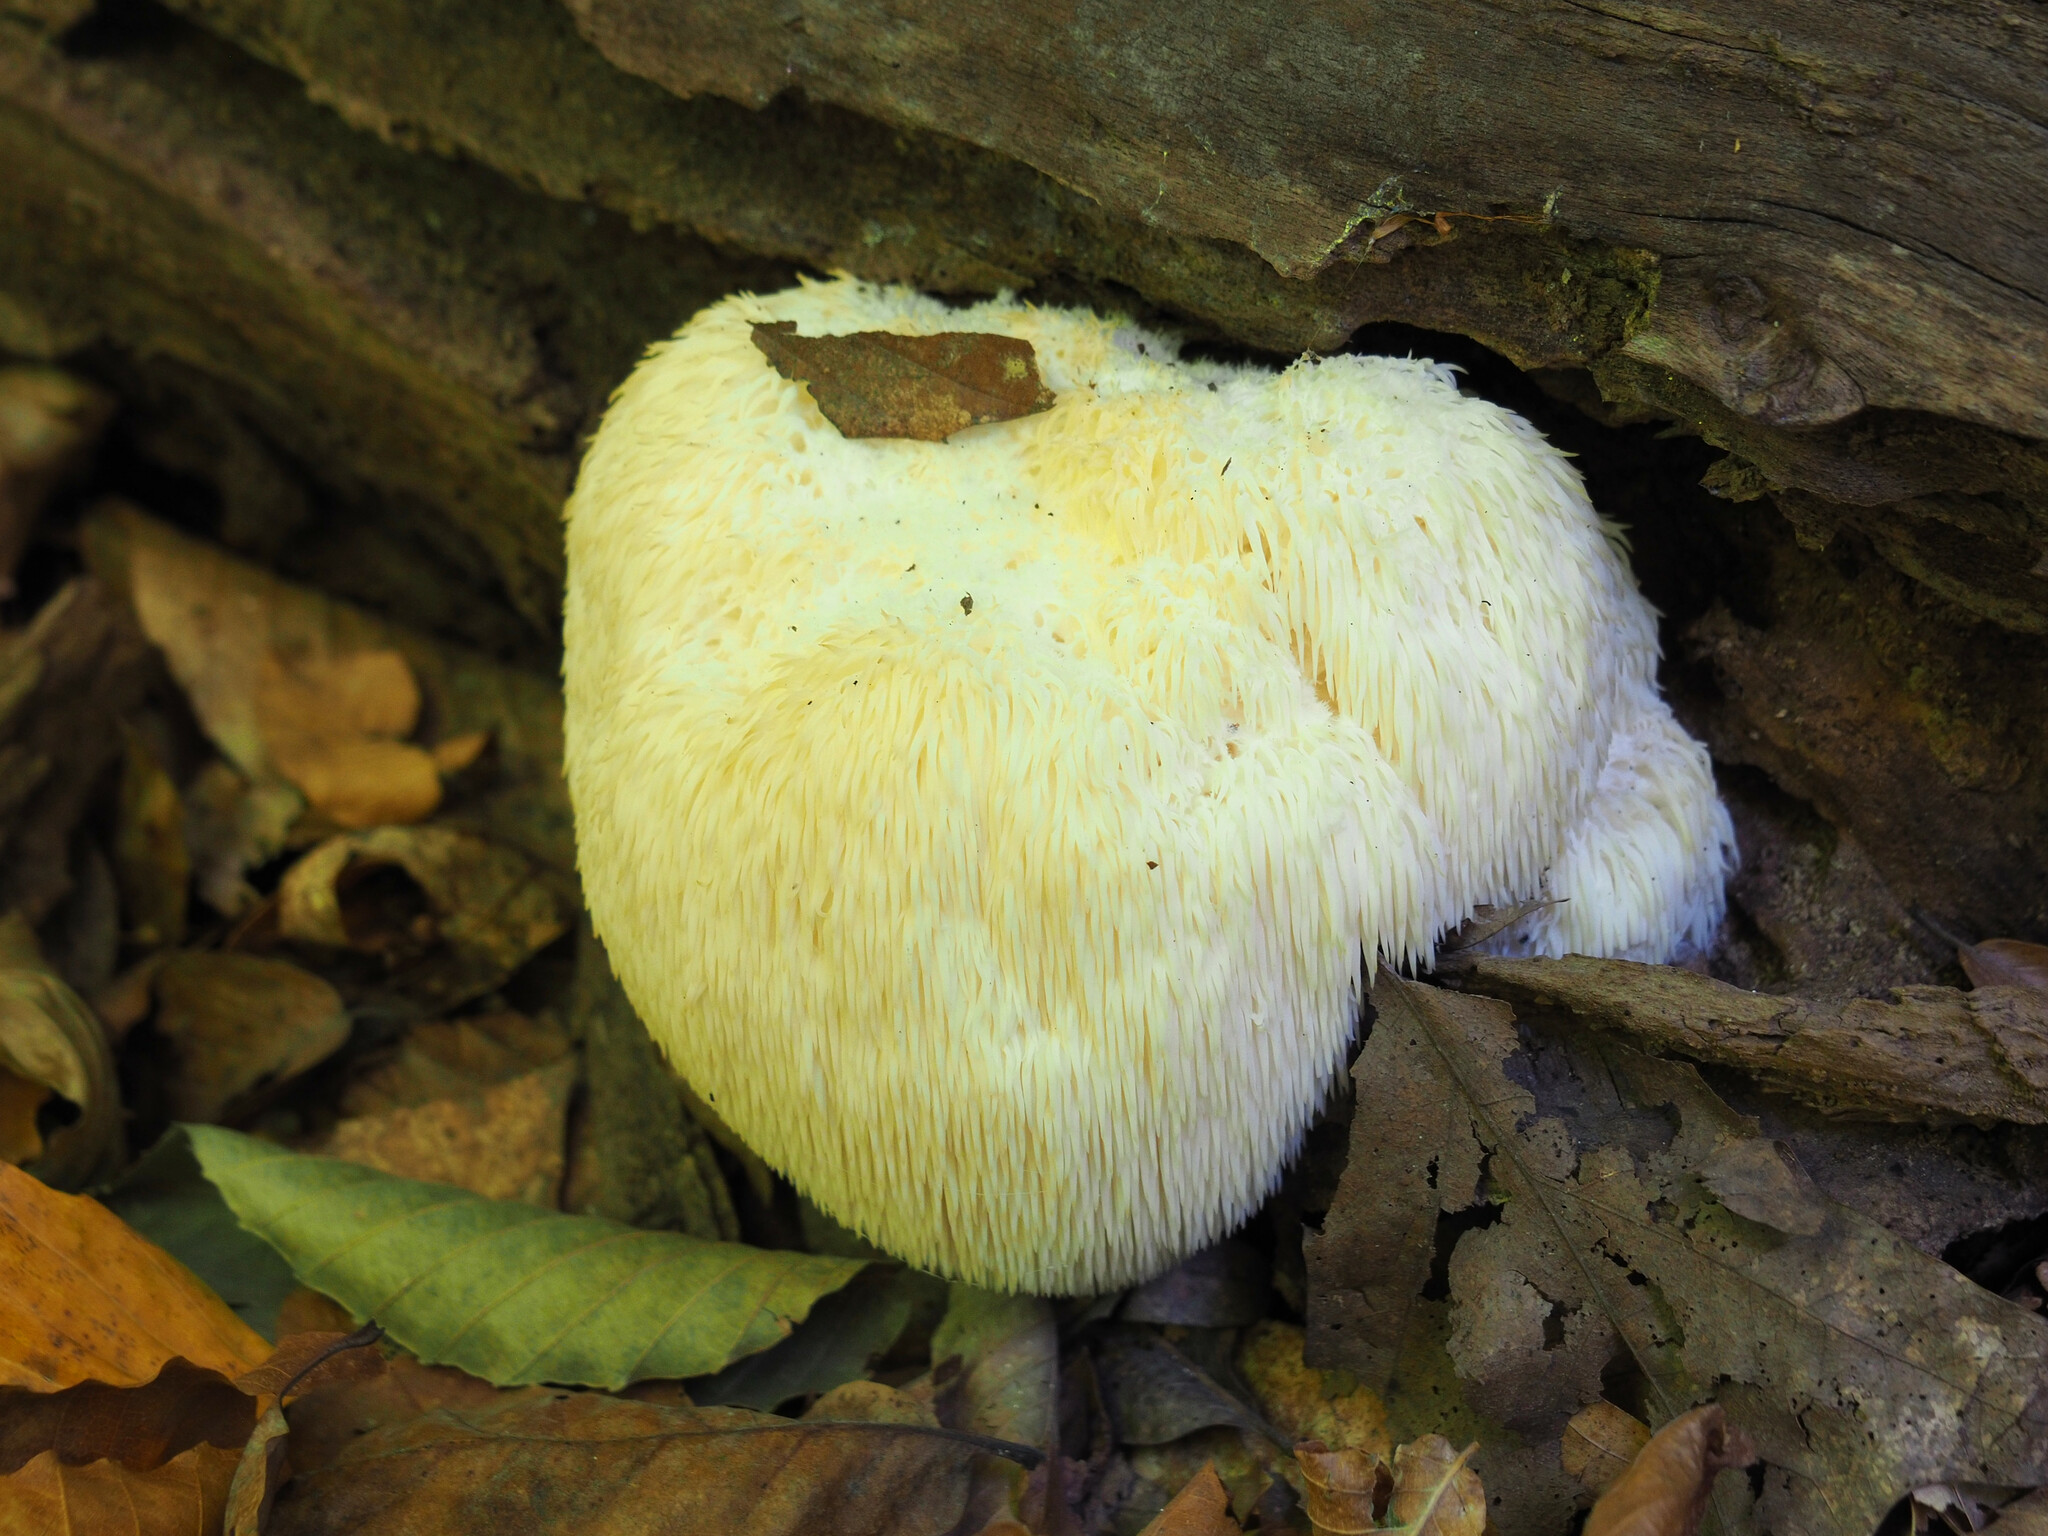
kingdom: Fungi
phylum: Basidiomycota
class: Agaricomycetes
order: Russulales
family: Hericiaceae
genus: Hericium
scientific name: Hericium erinaceus
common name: Bearded tooth
